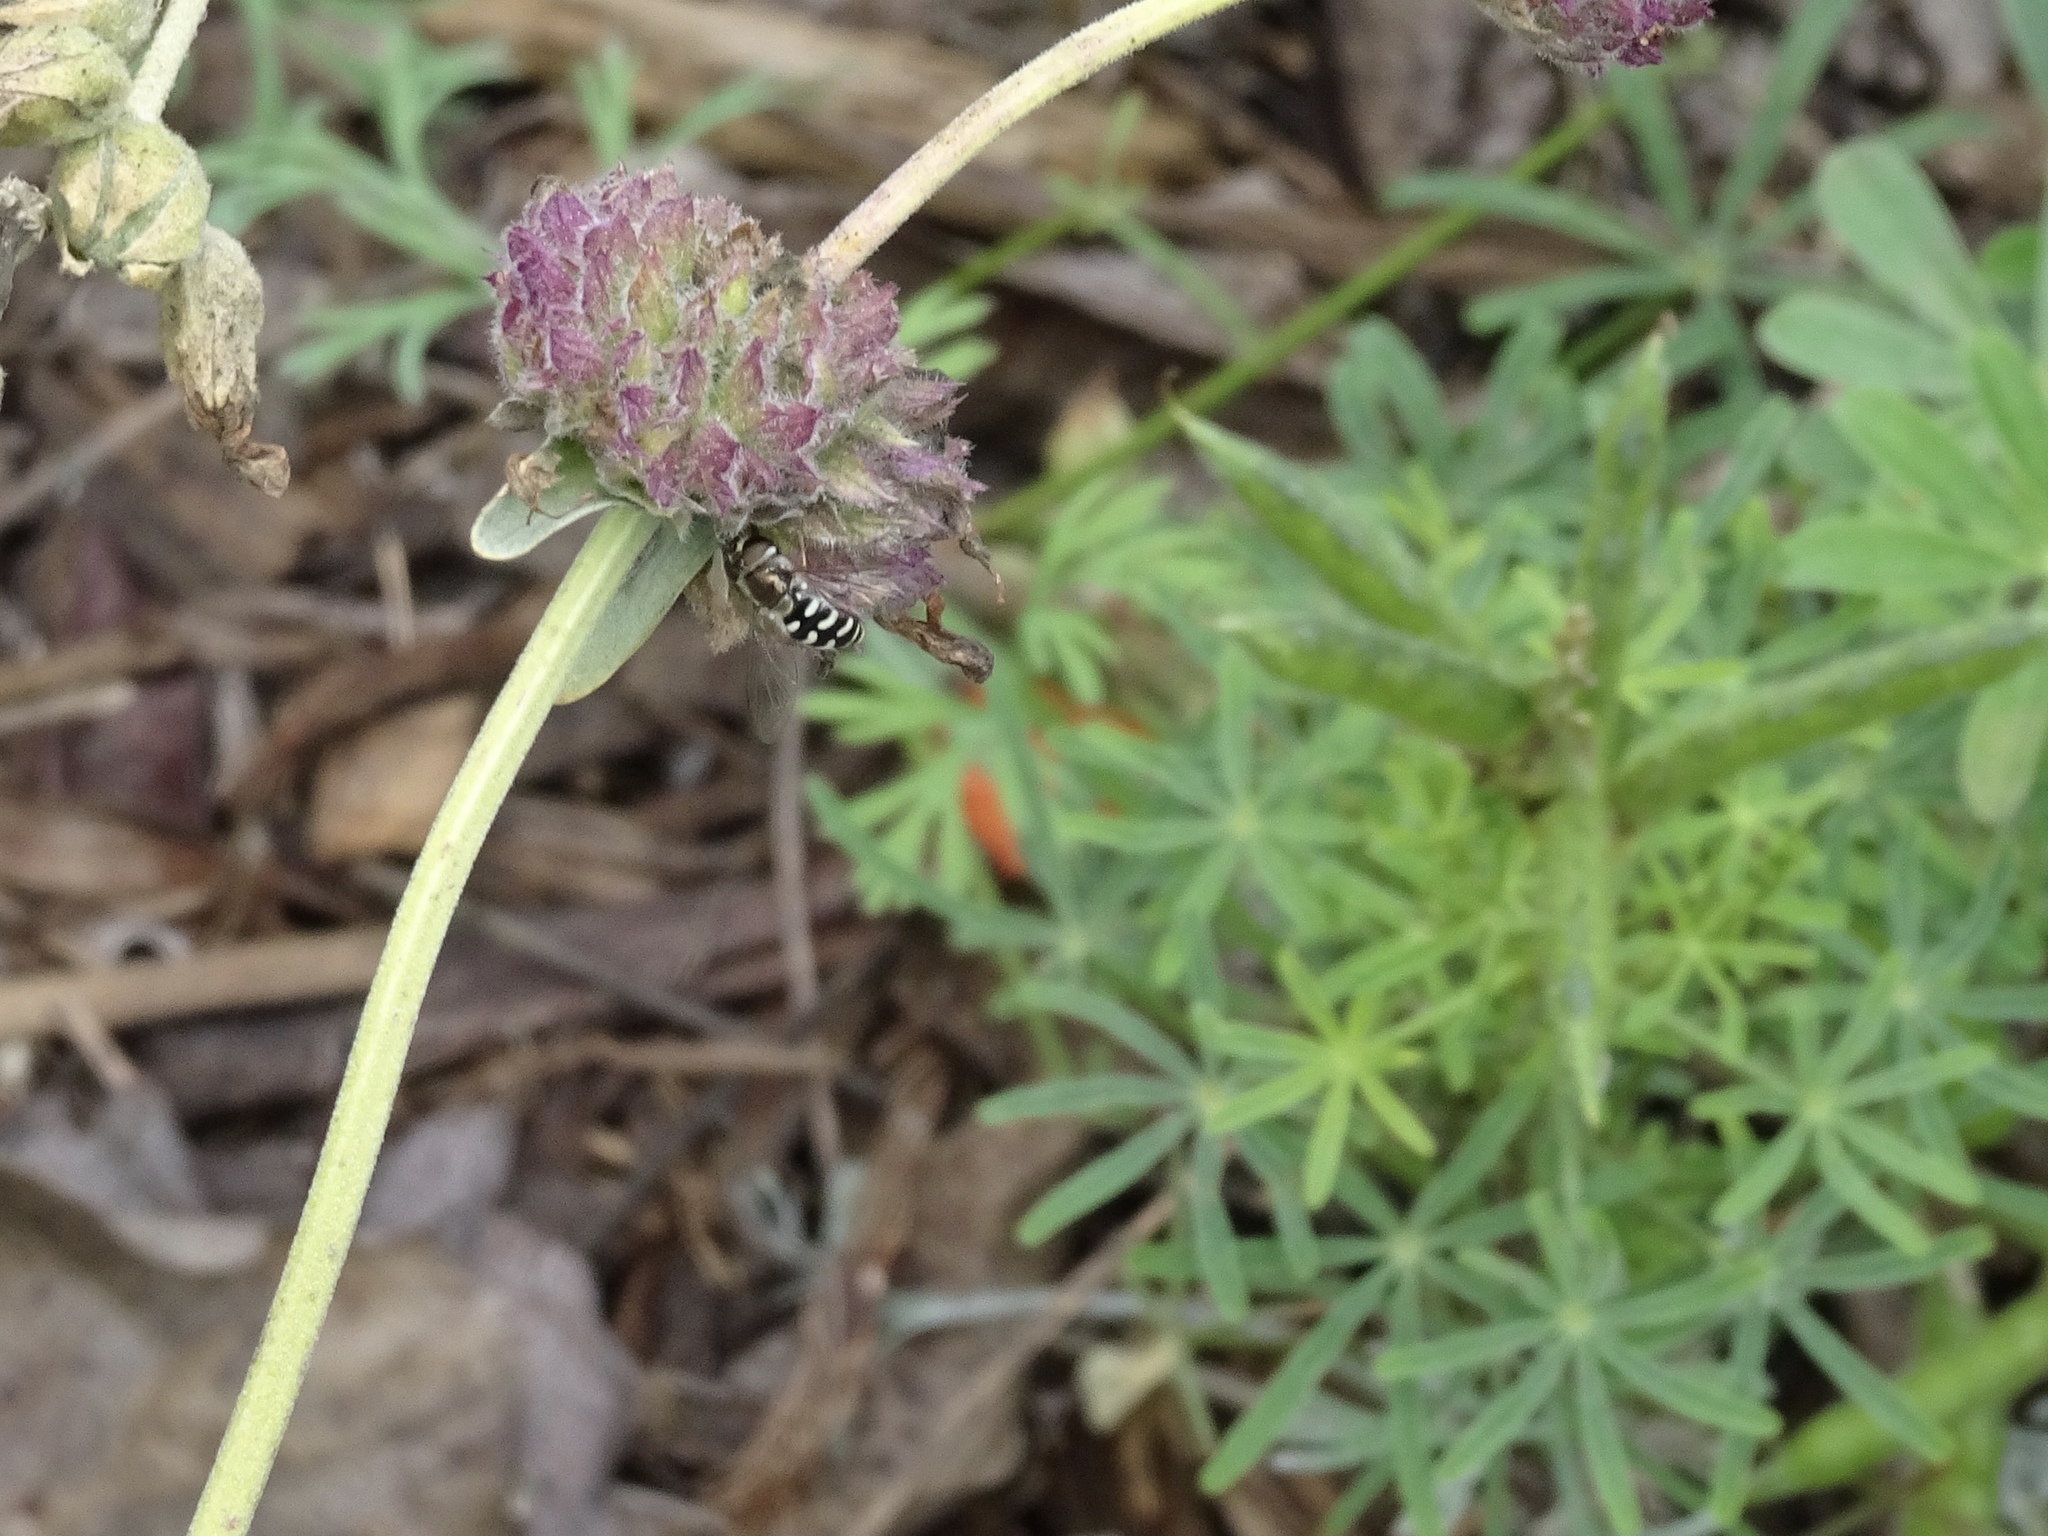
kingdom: Animalia
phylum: Arthropoda
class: Insecta
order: Diptera
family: Syrphidae
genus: Eupeodes
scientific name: Eupeodes volucris
